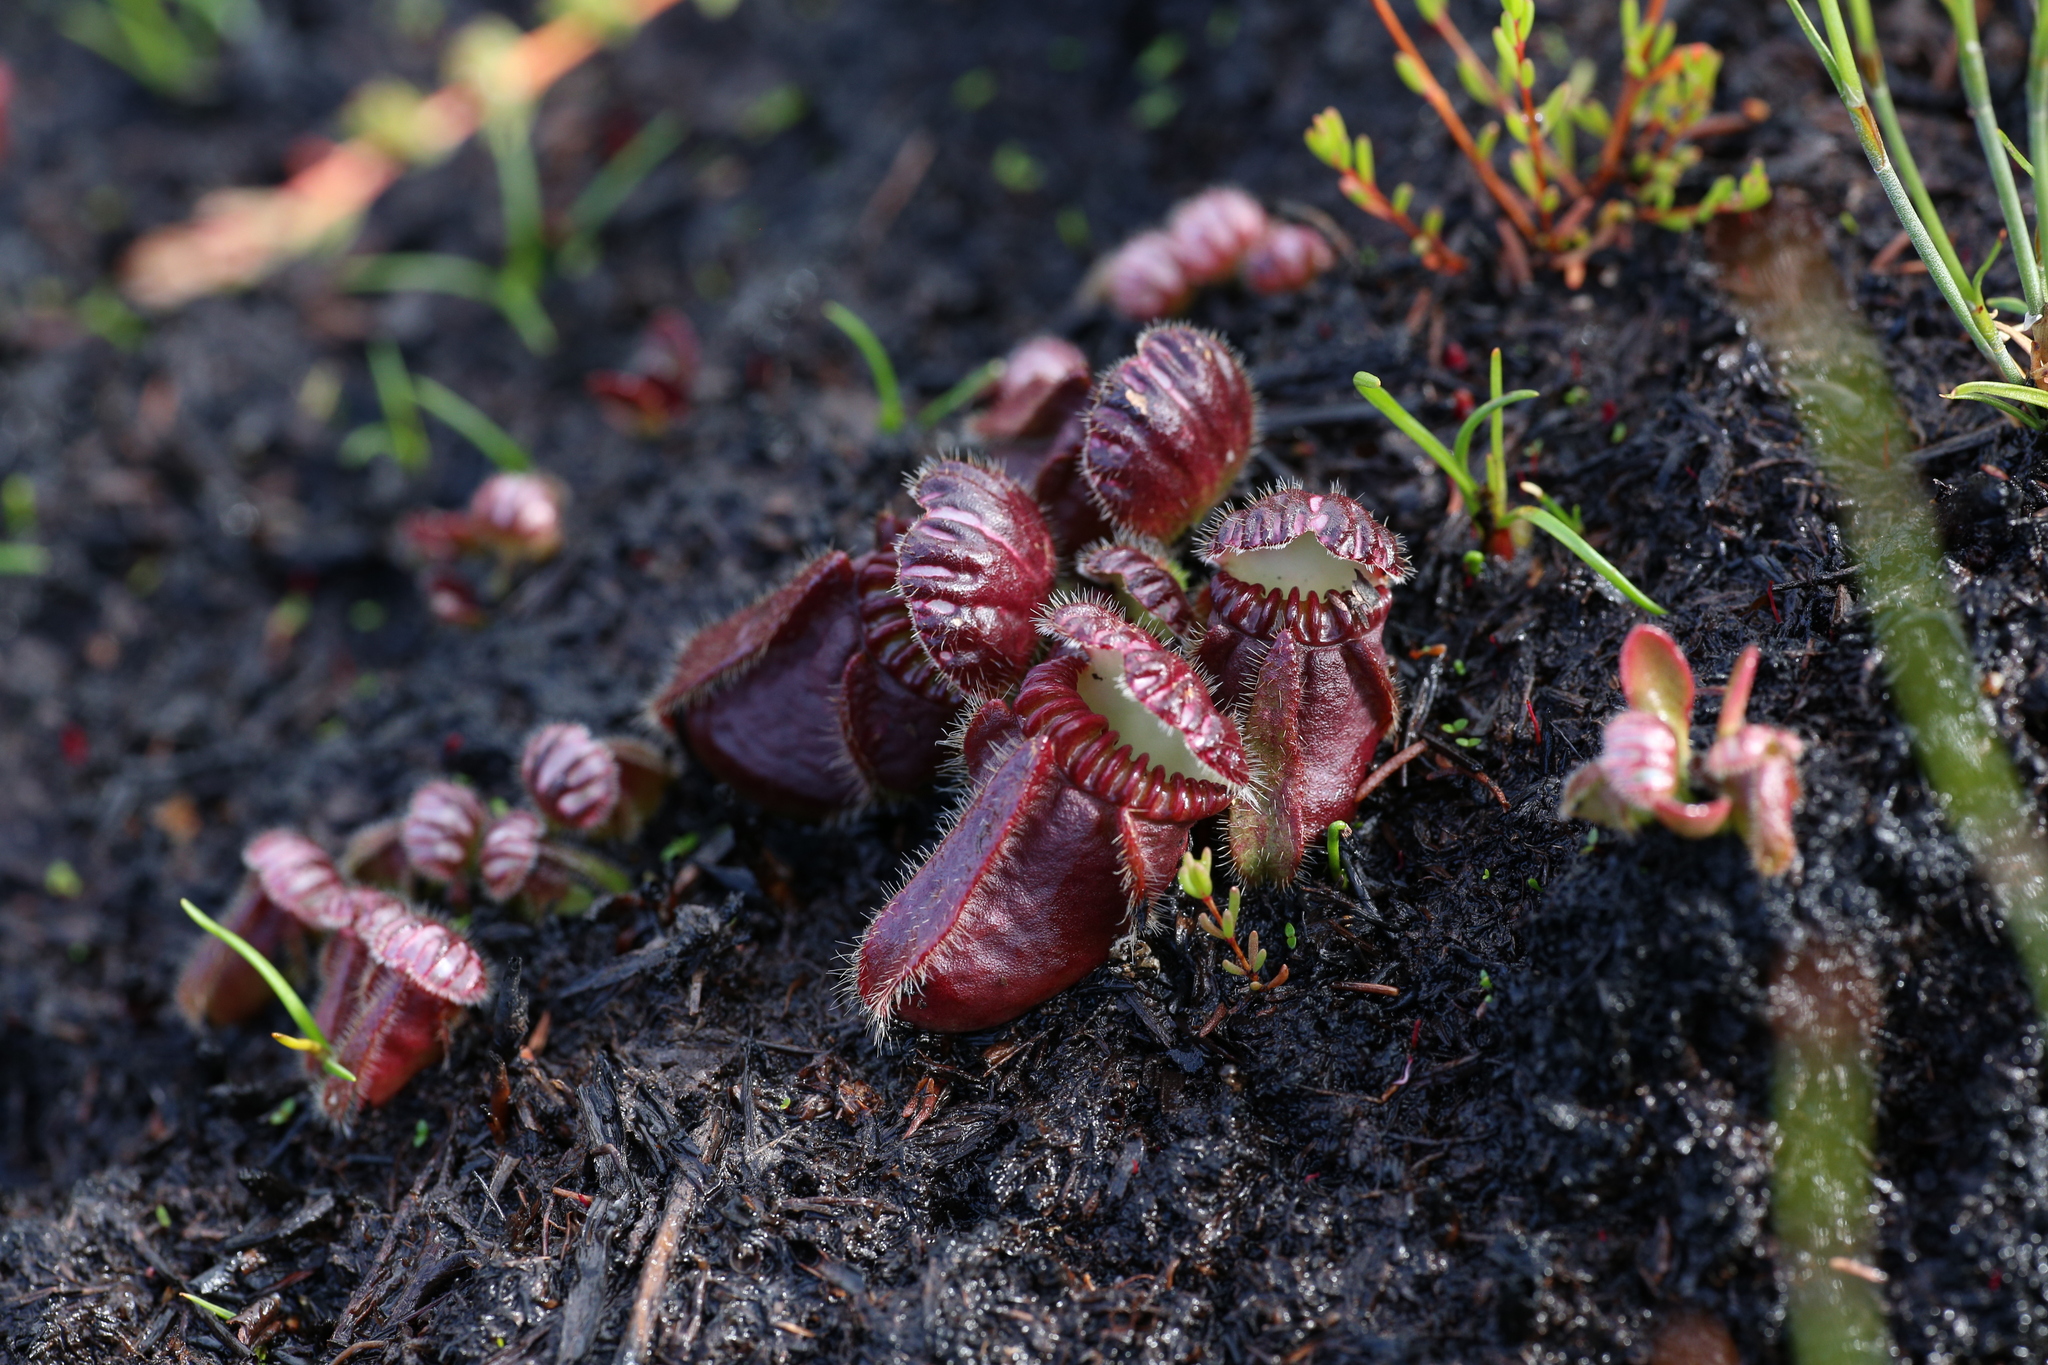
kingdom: Plantae
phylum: Tracheophyta
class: Magnoliopsida
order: Oxalidales
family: Cephalotaceae
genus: Cephalotus
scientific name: Cephalotus follicularis
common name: Australian pitcher plant
